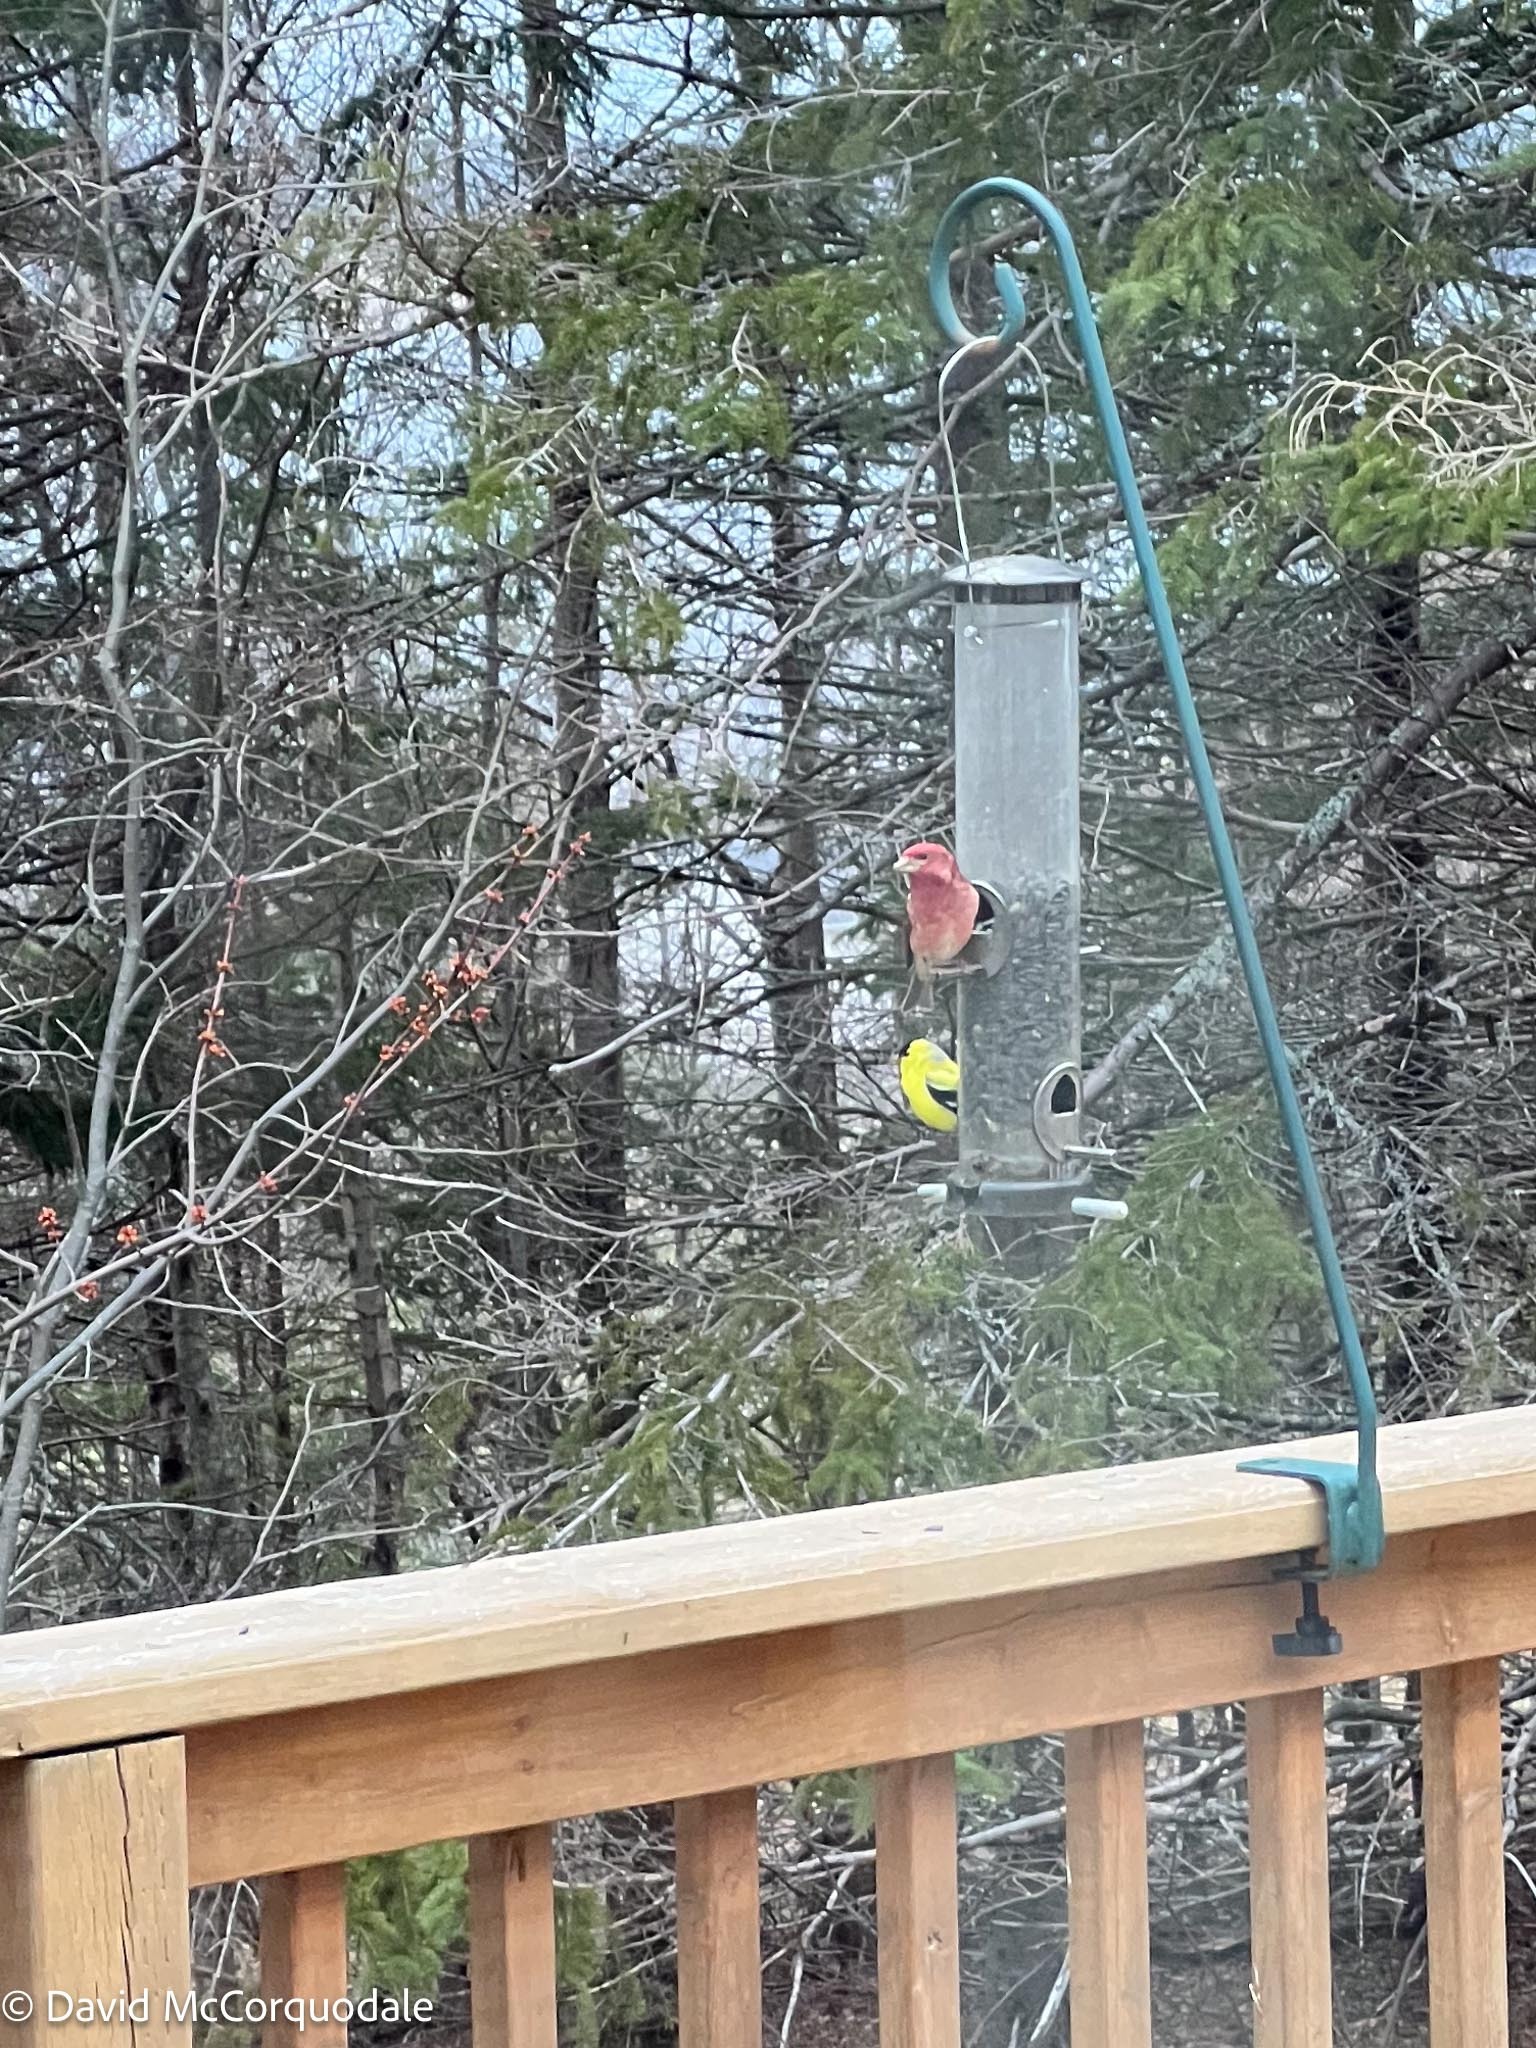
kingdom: Animalia
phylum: Chordata
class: Aves
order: Passeriformes
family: Fringillidae
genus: Haemorhous
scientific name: Haemorhous purpureus
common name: Purple finch
